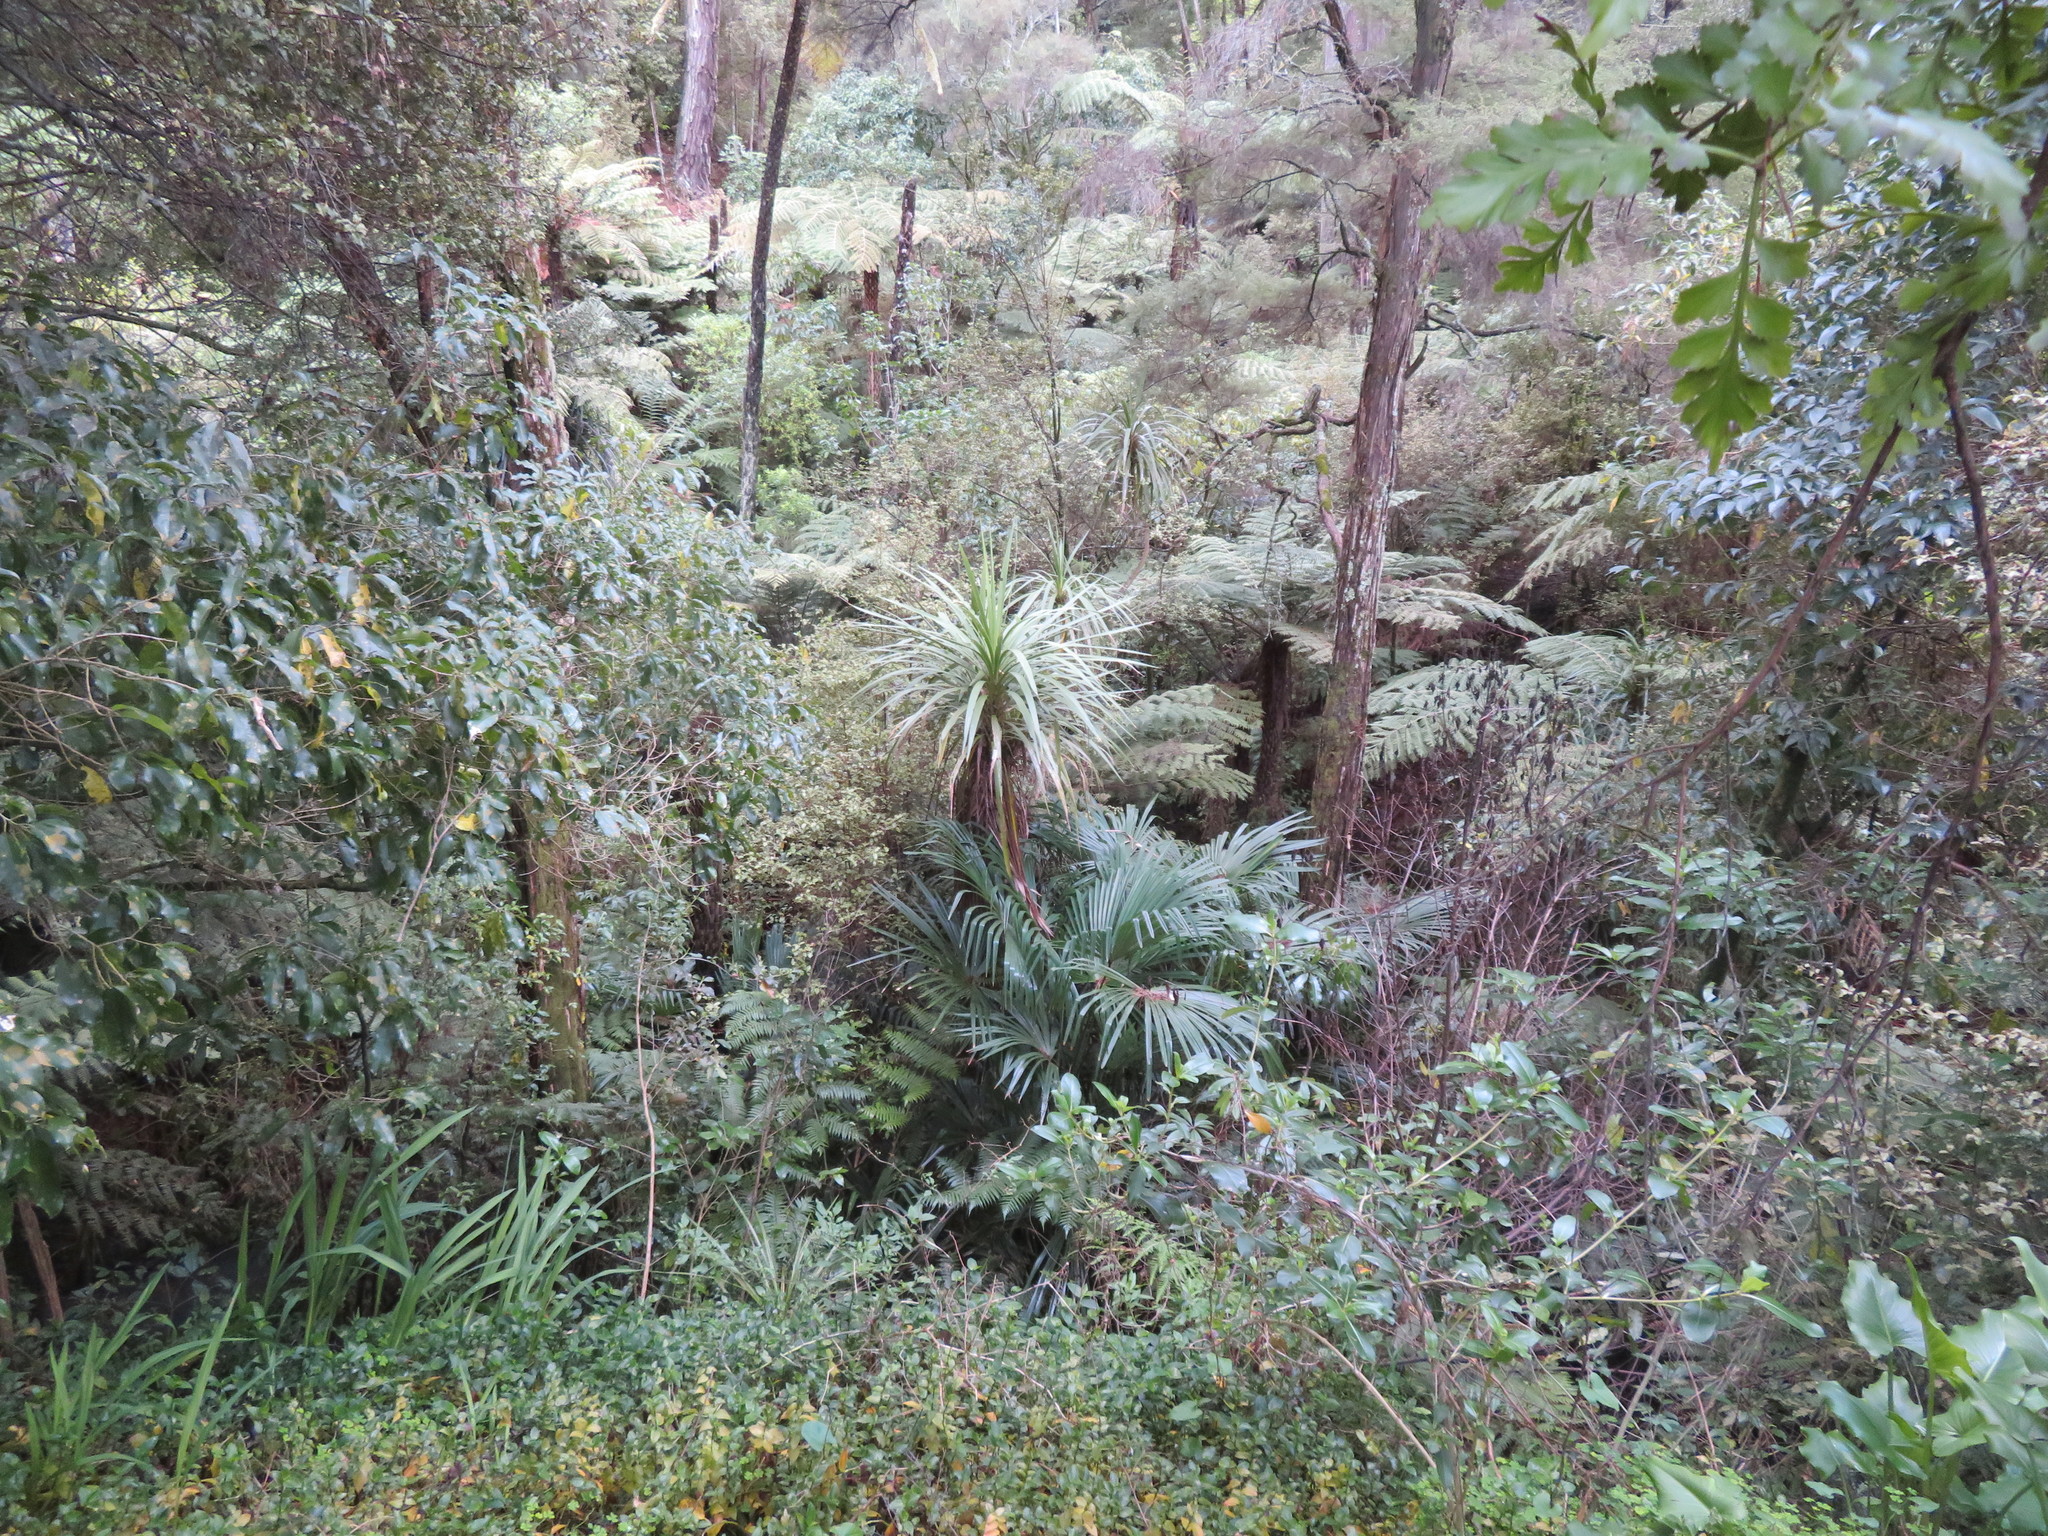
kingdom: Plantae
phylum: Tracheophyta
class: Pinopsida
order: Pinales
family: Phyllocladaceae
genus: Phyllocladus
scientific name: Phyllocladus trichomanoides
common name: Celery pine
